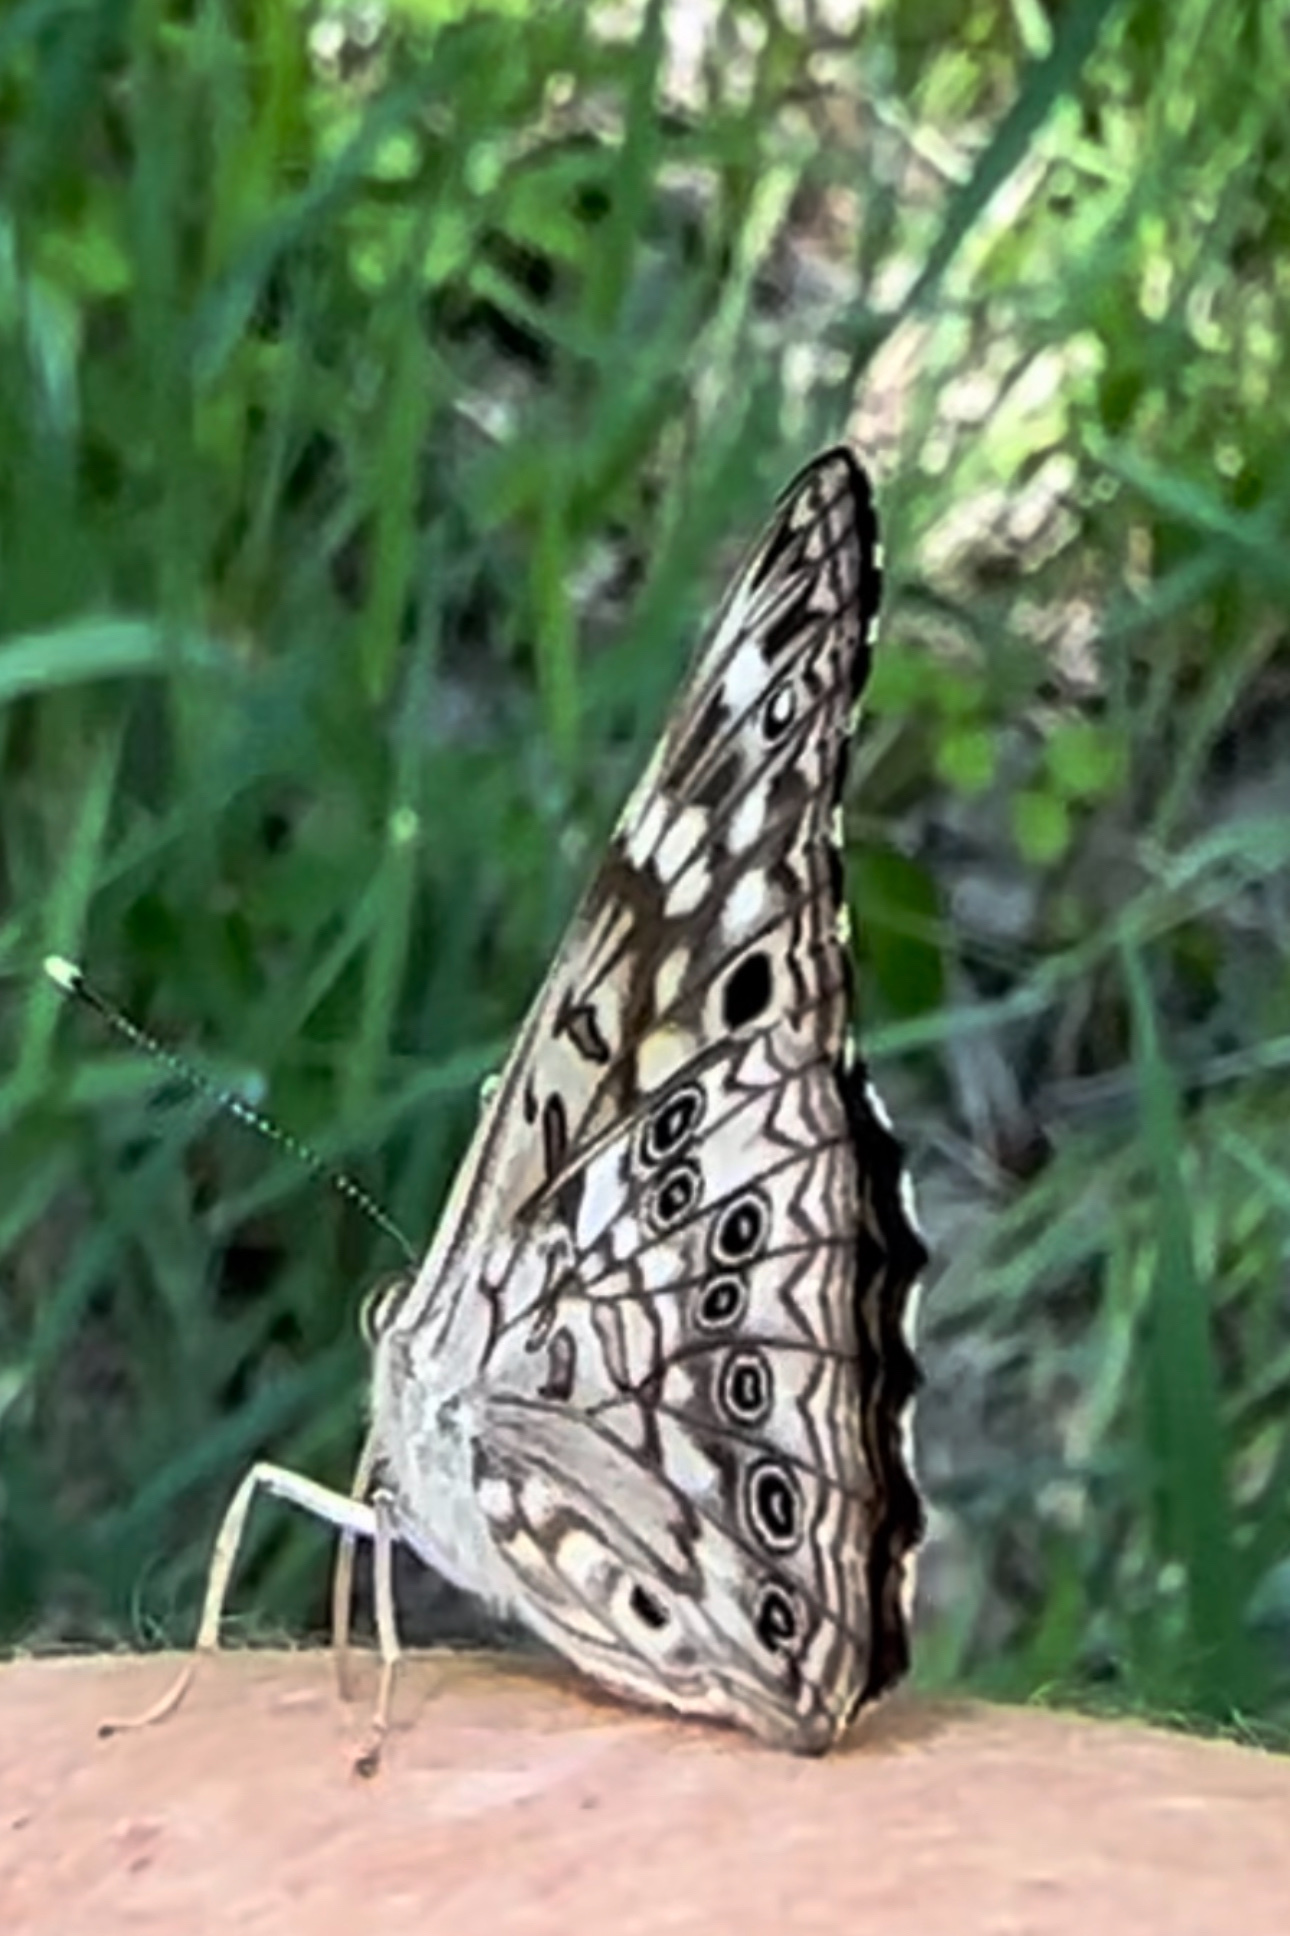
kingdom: Animalia
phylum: Arthropoda
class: Insecta
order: Lepidoptera
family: Nymphalidae
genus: Asterocampa
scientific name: Asterocampa celtis
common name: Hackberry emperor
